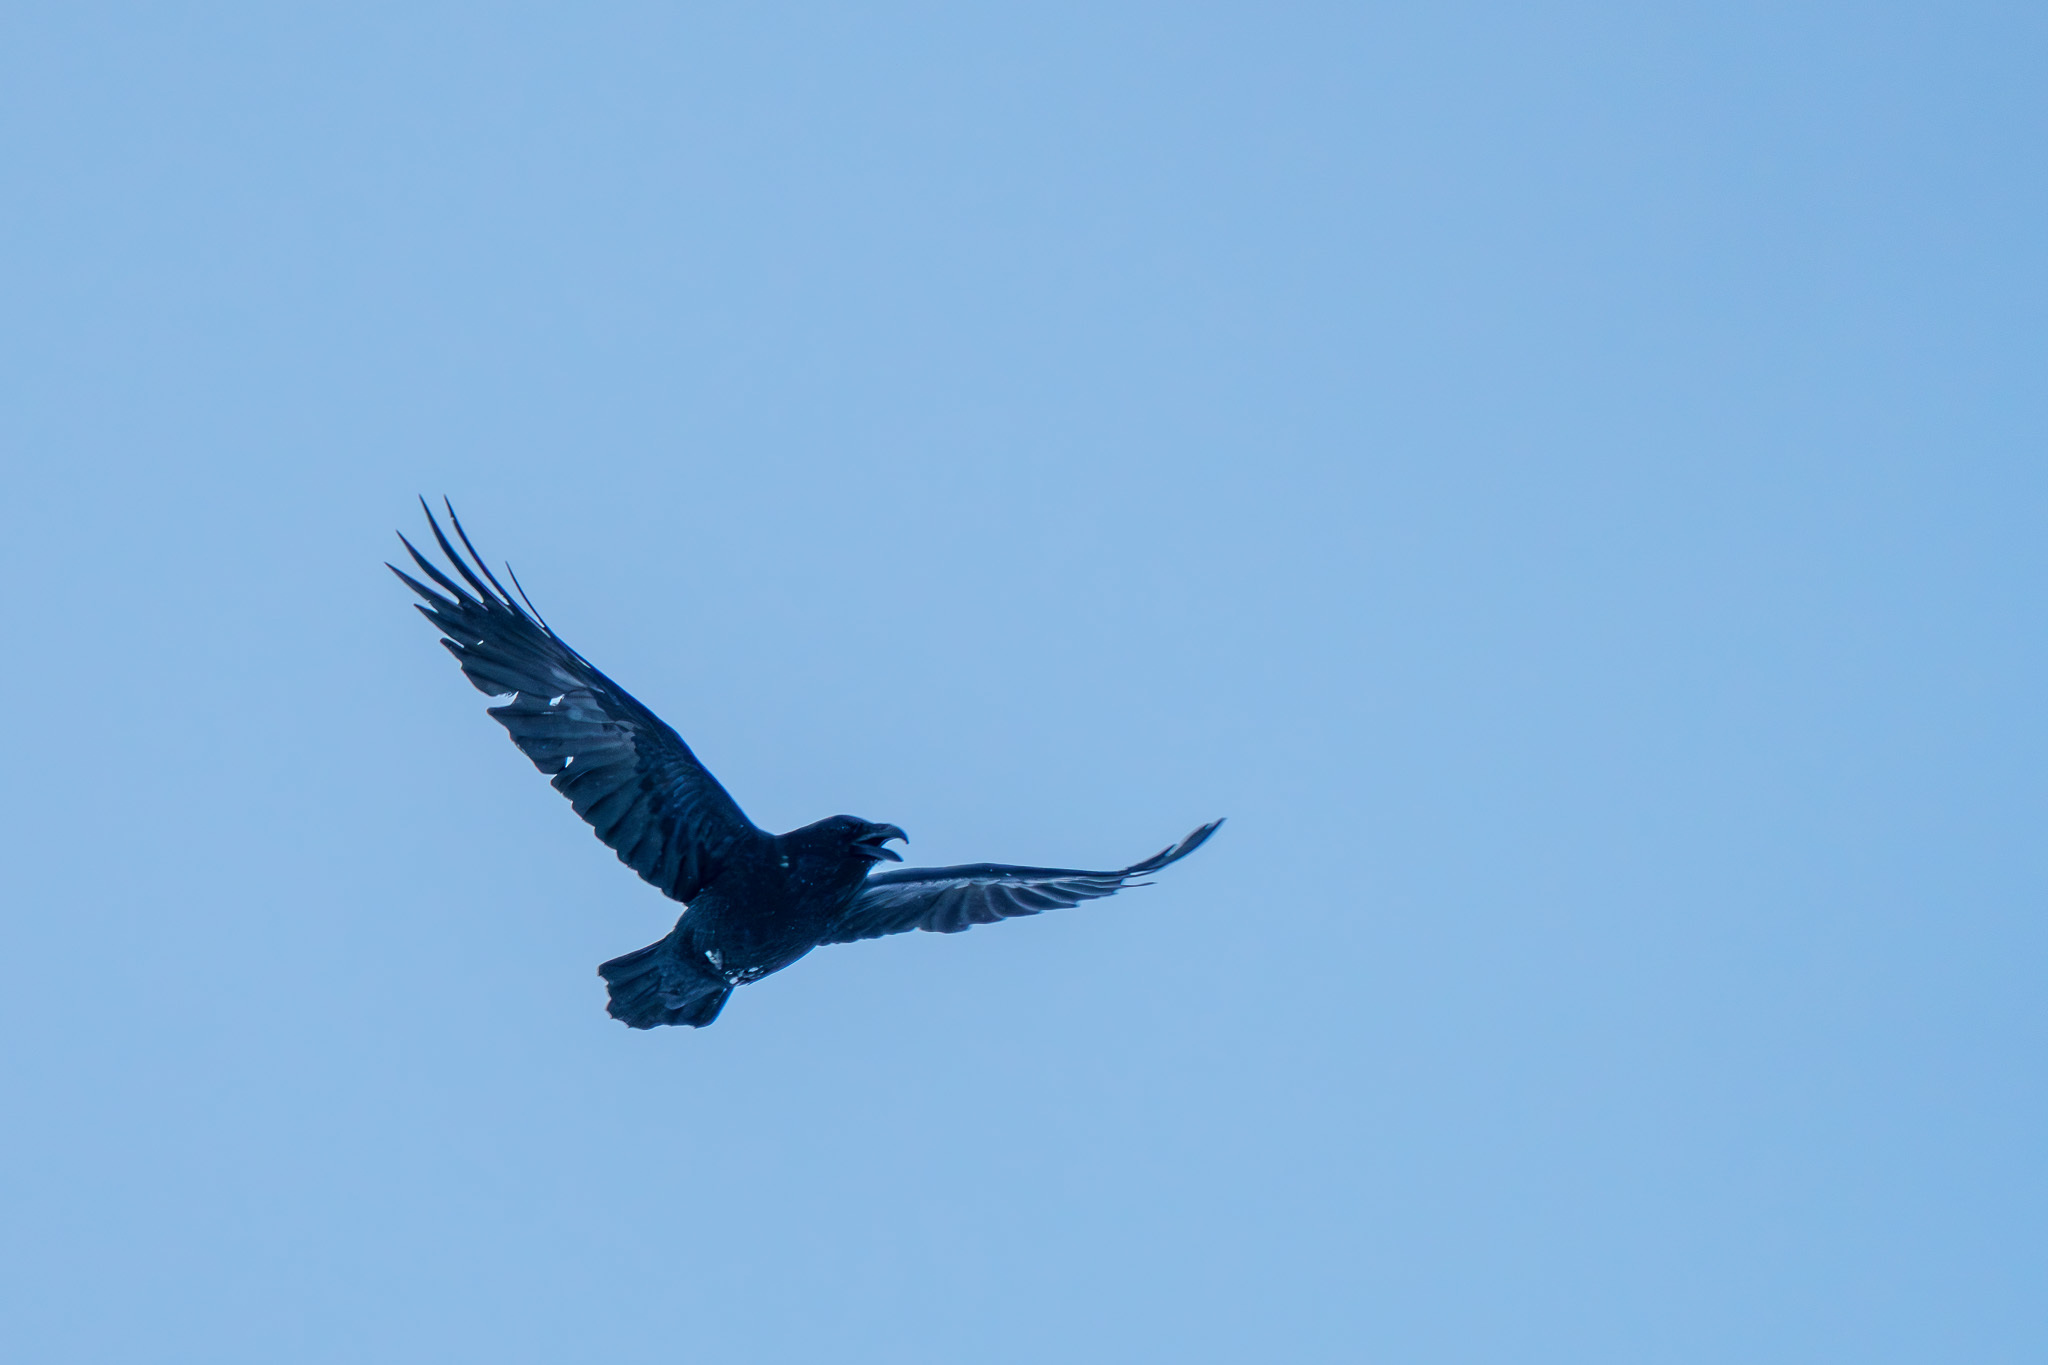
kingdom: Animalia
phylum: Chordata
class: Aves
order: Passeriformes
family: Corvidae
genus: Corvus
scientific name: Corvus corax
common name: Common raven
